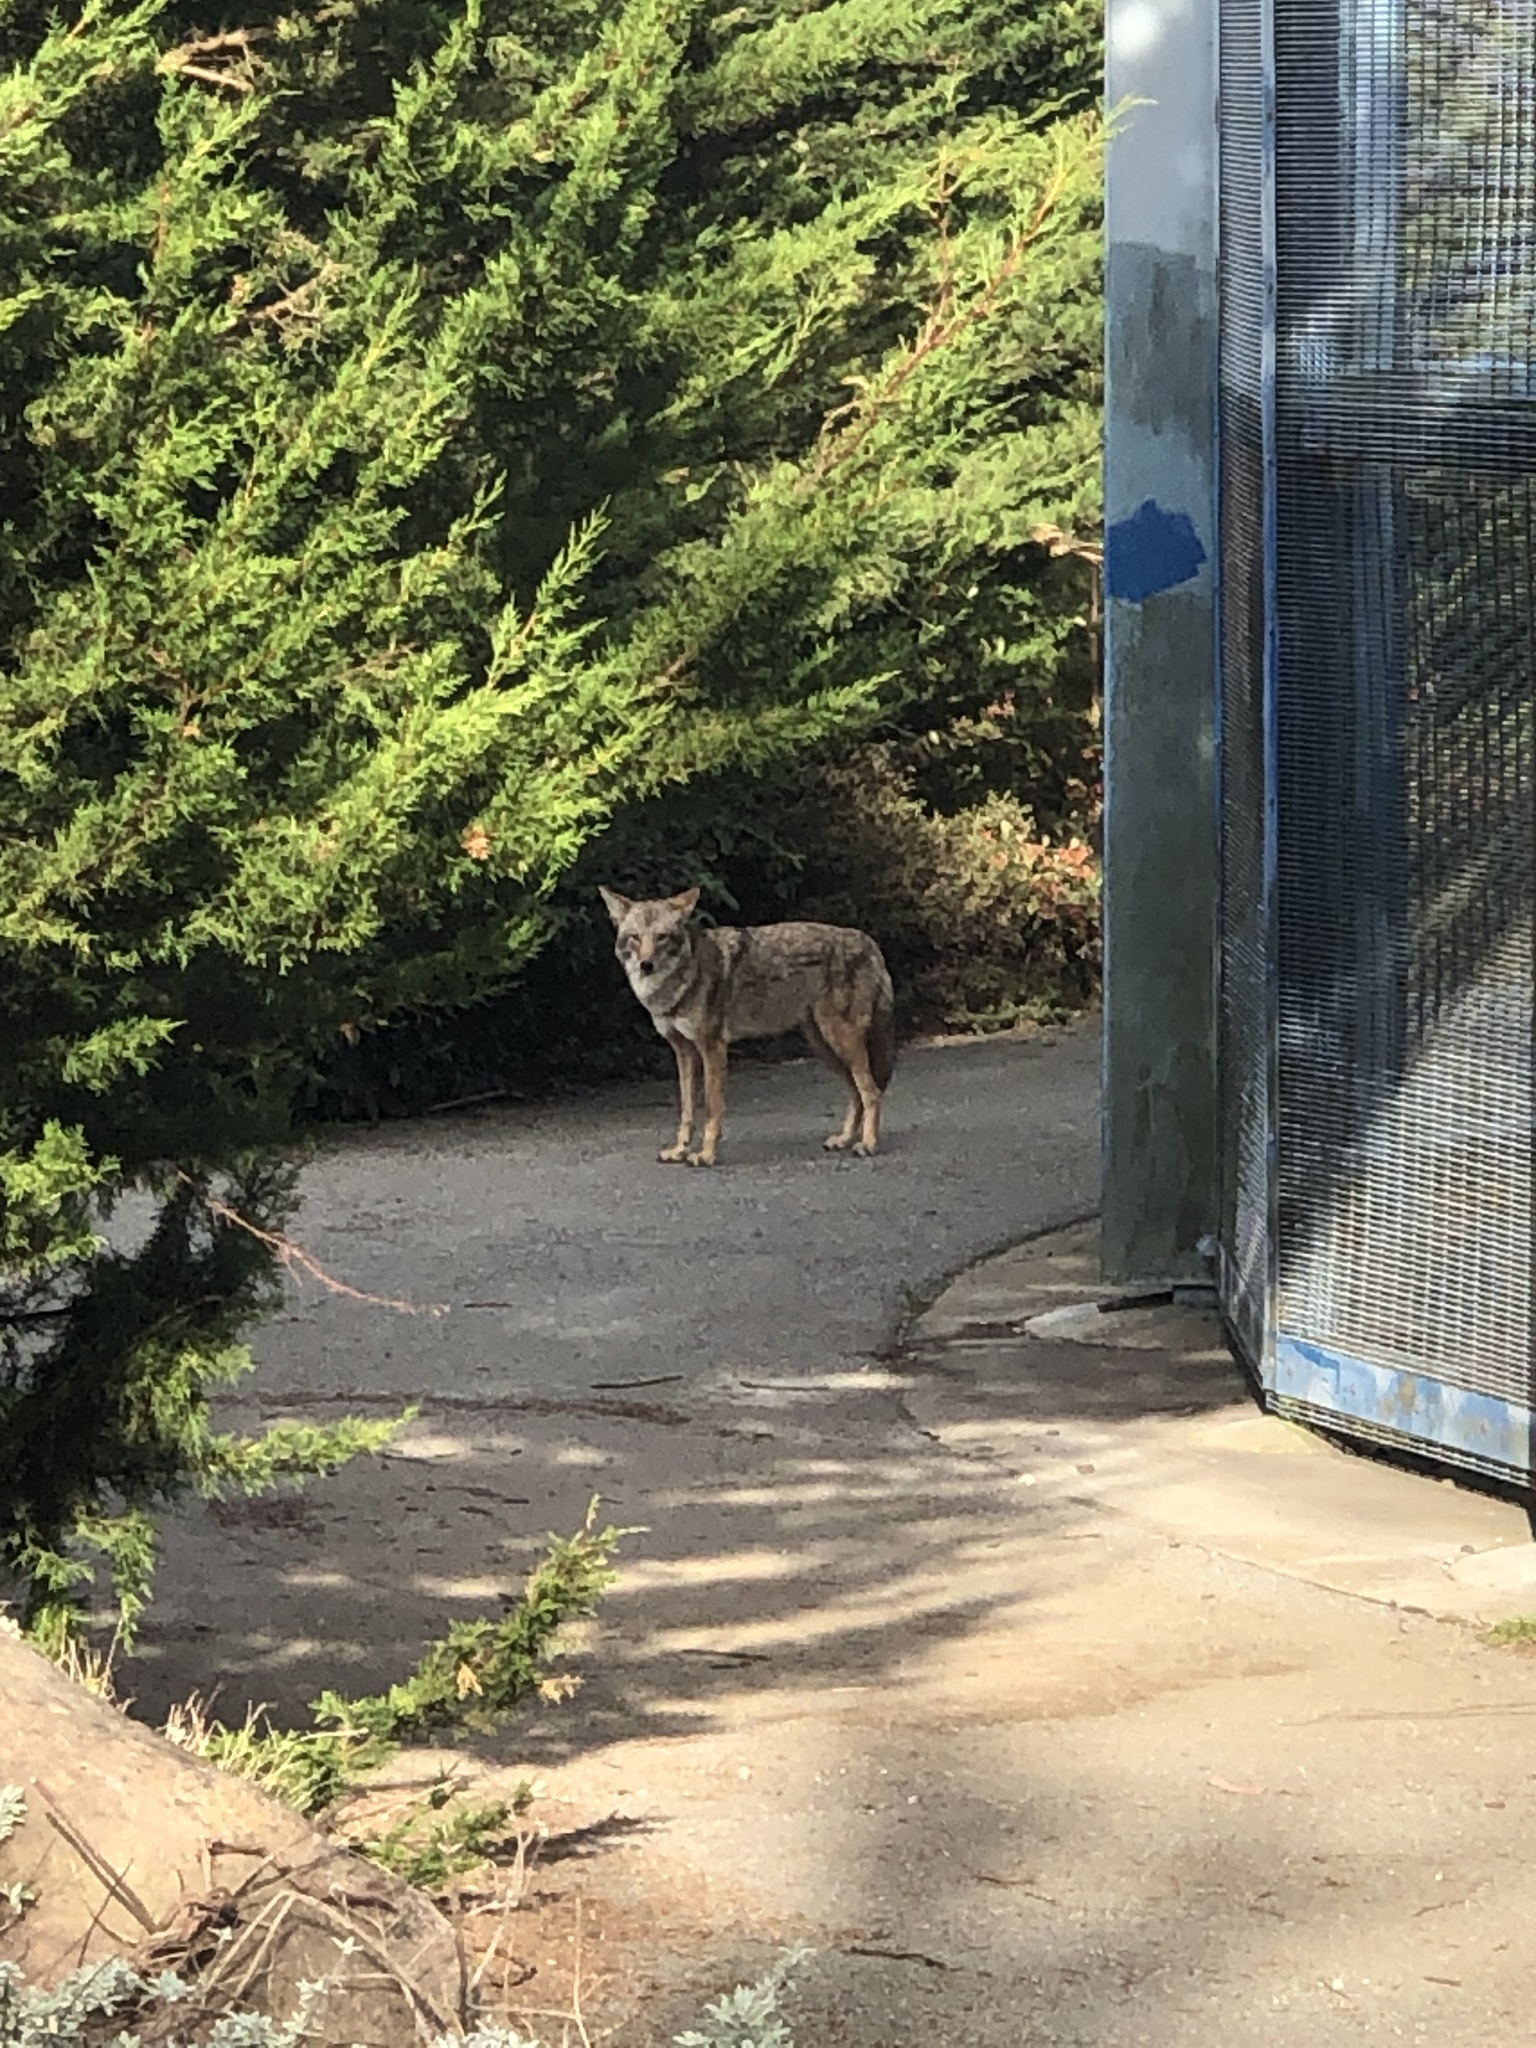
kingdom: Animalia
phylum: Chordata
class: Mammalia
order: Carnivora
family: Canidae
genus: Canis
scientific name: Canis latrans
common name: Coyote
